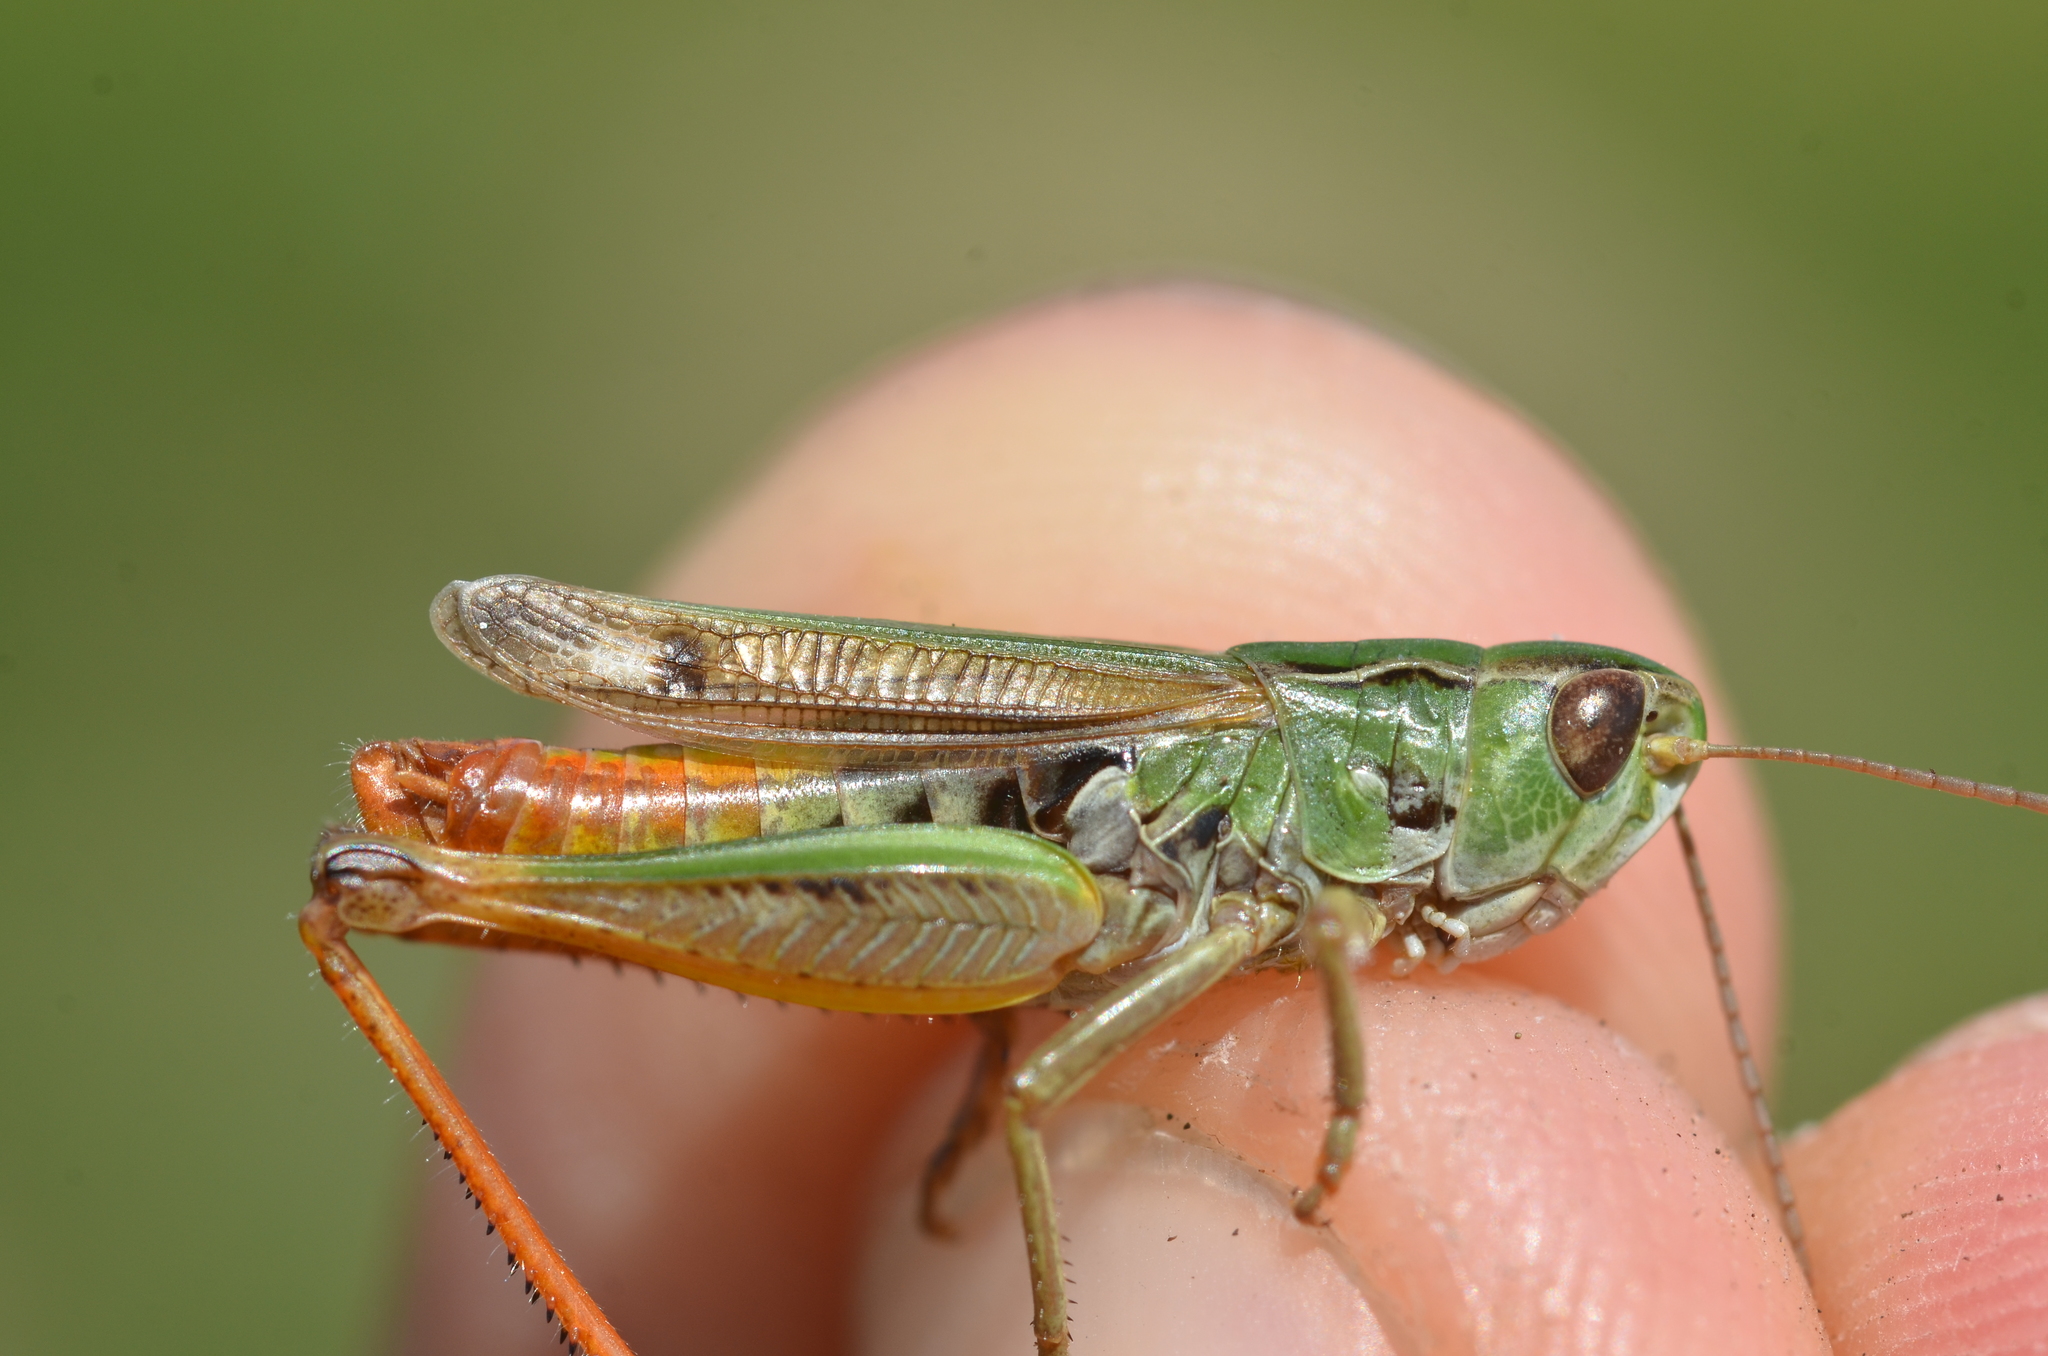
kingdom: Animalia
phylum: Arthropoda
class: Insecta
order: Orthoptera
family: Acrididae
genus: Stenobothrus
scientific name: Stenobothrus nigromaculatus
